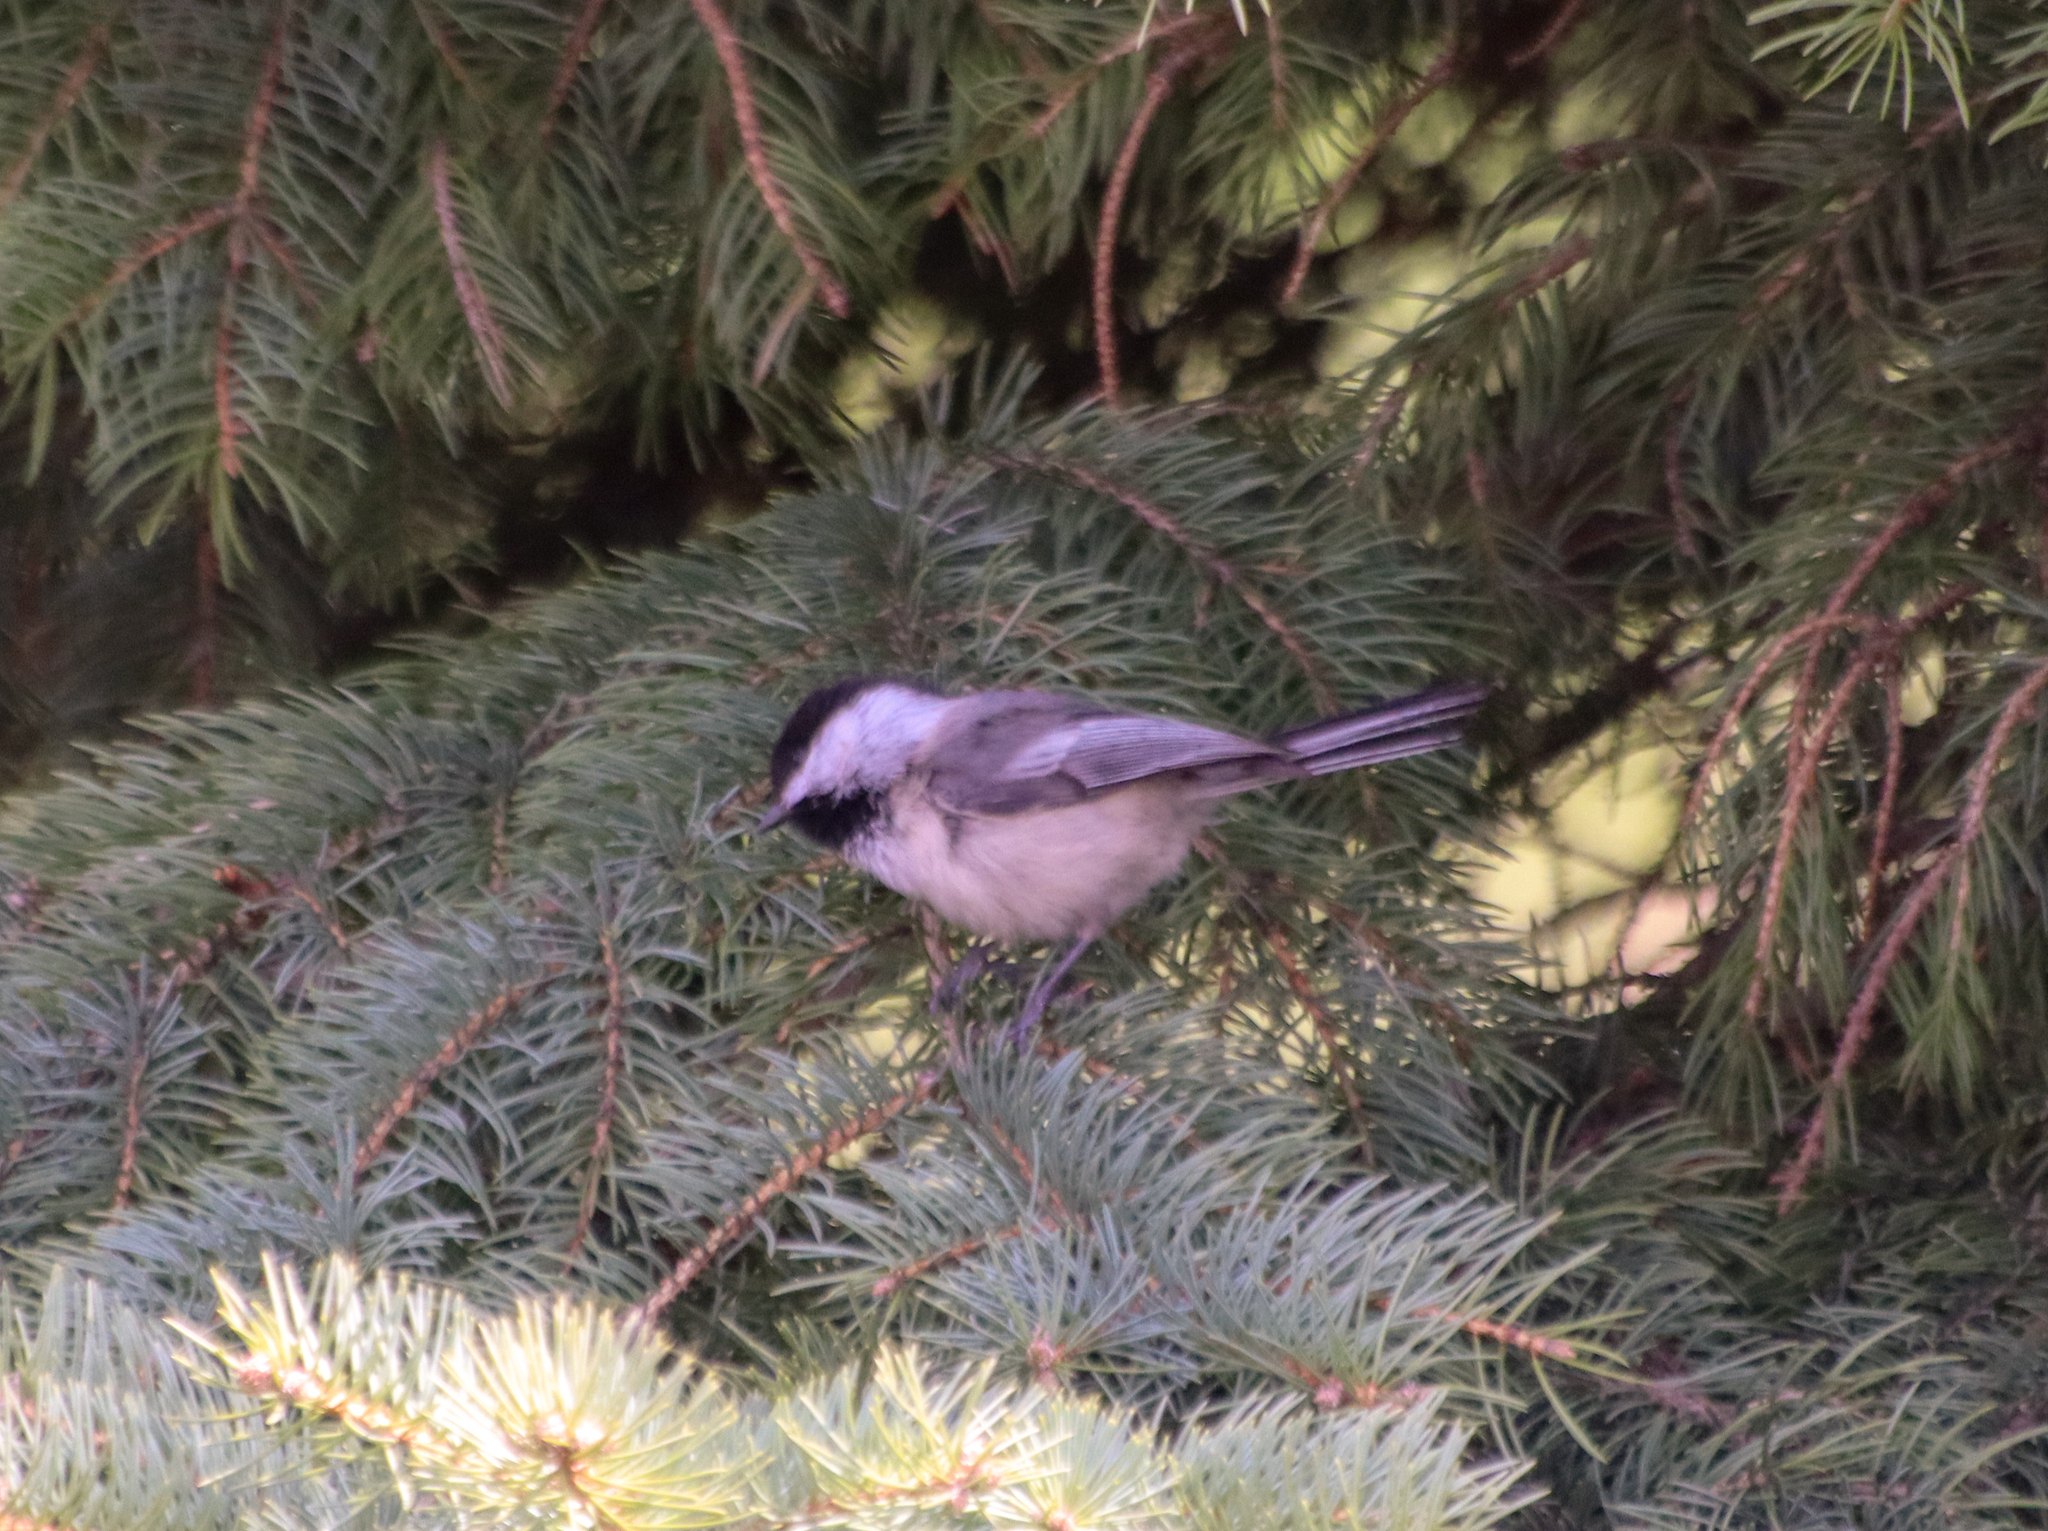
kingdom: Animalia
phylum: Chordata
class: Aves
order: Passeriformes
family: Paridae
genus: Poecile
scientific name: Poecile atricapillus
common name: Black-capped chickadee
